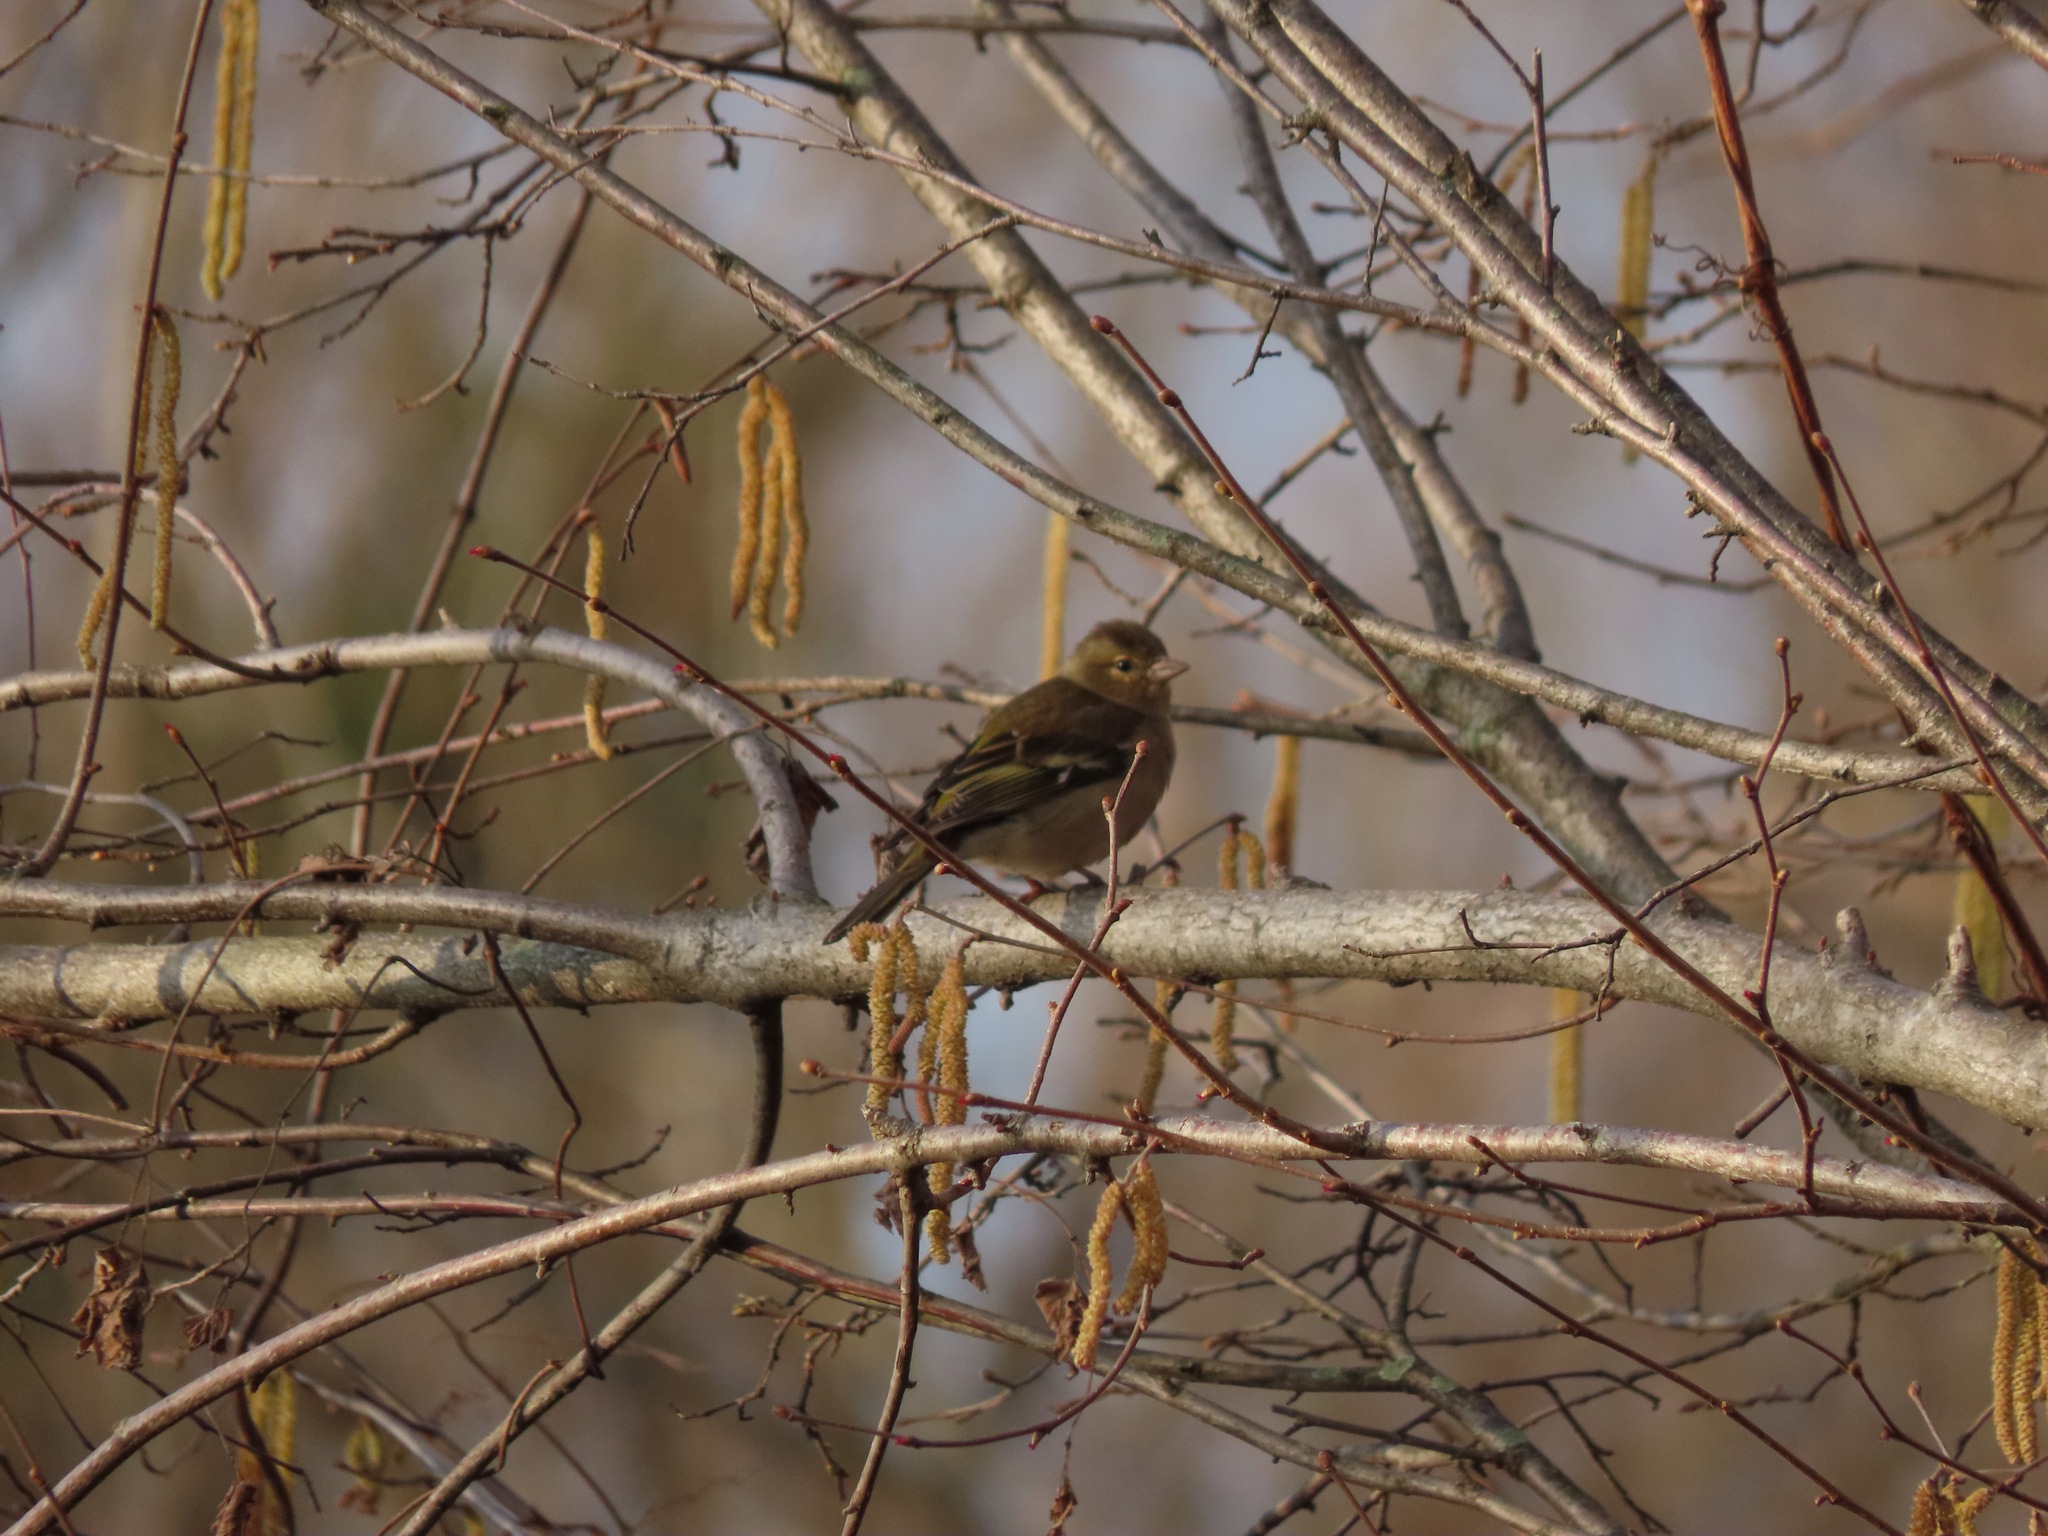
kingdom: Animalia
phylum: Chordata
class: Aves
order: Passeriformes
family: Fringillidae
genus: Fringilla
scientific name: Fringilla coelebs
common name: Common chaffinch
